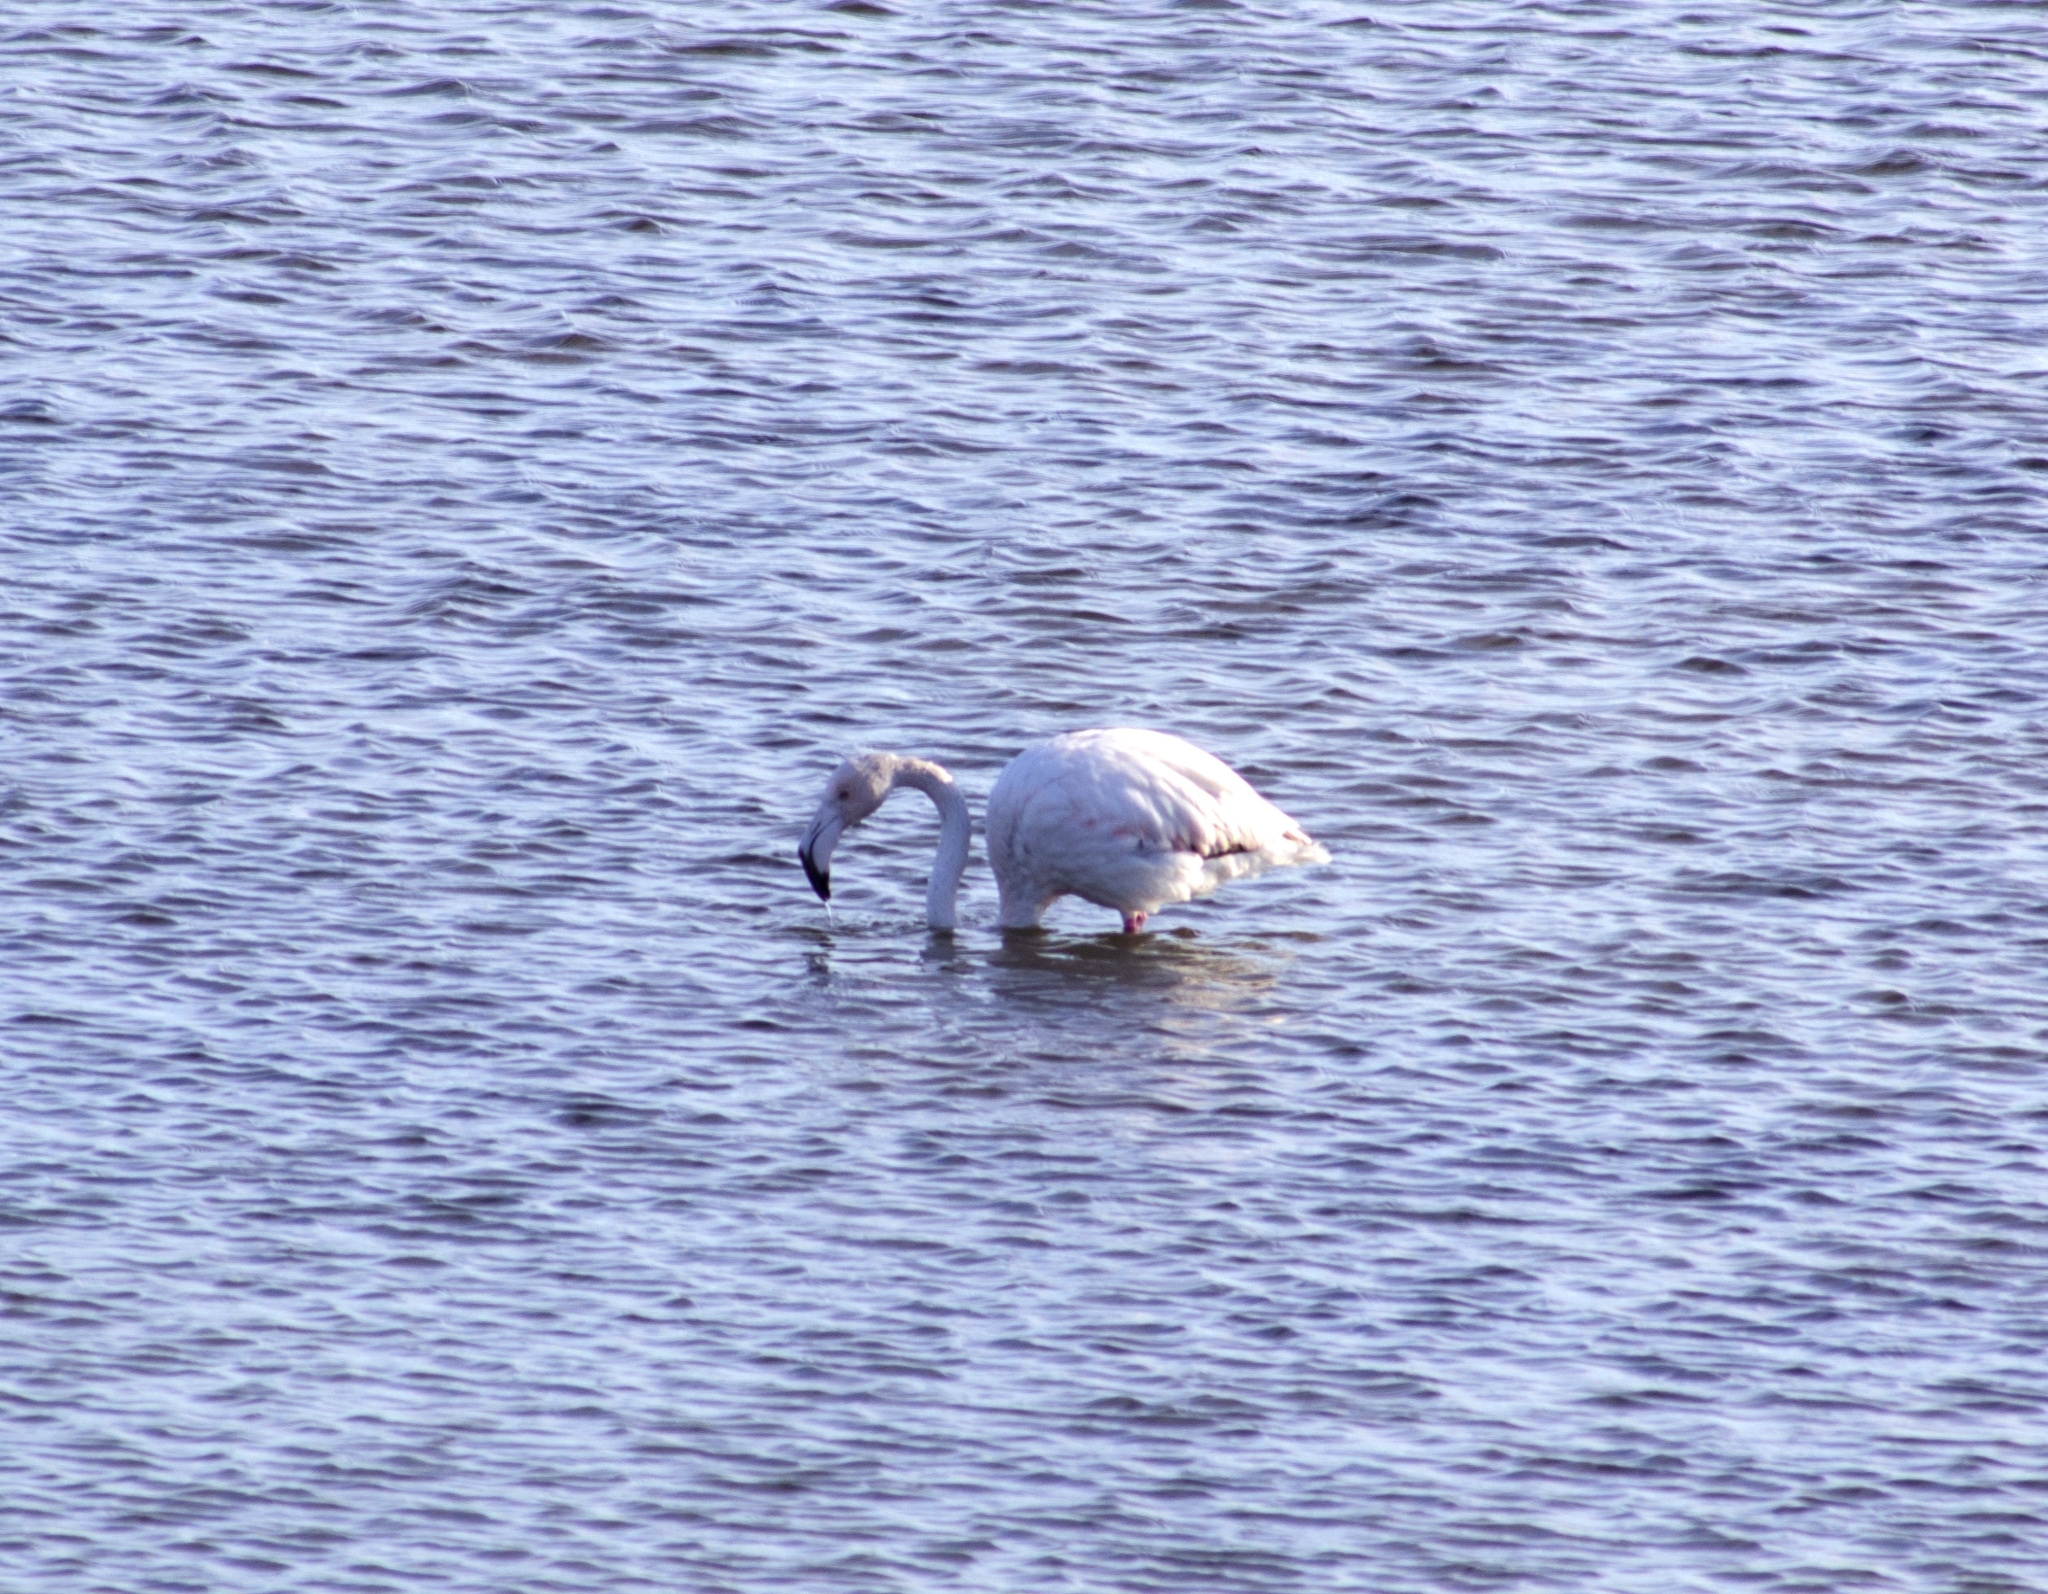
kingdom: Animalia
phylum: Chordata
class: Aves
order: Phoenicopteriformes
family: Phoenicopteridae
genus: Phoenicopterus
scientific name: Phoenicopterus roseus
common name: Greater flamingo
